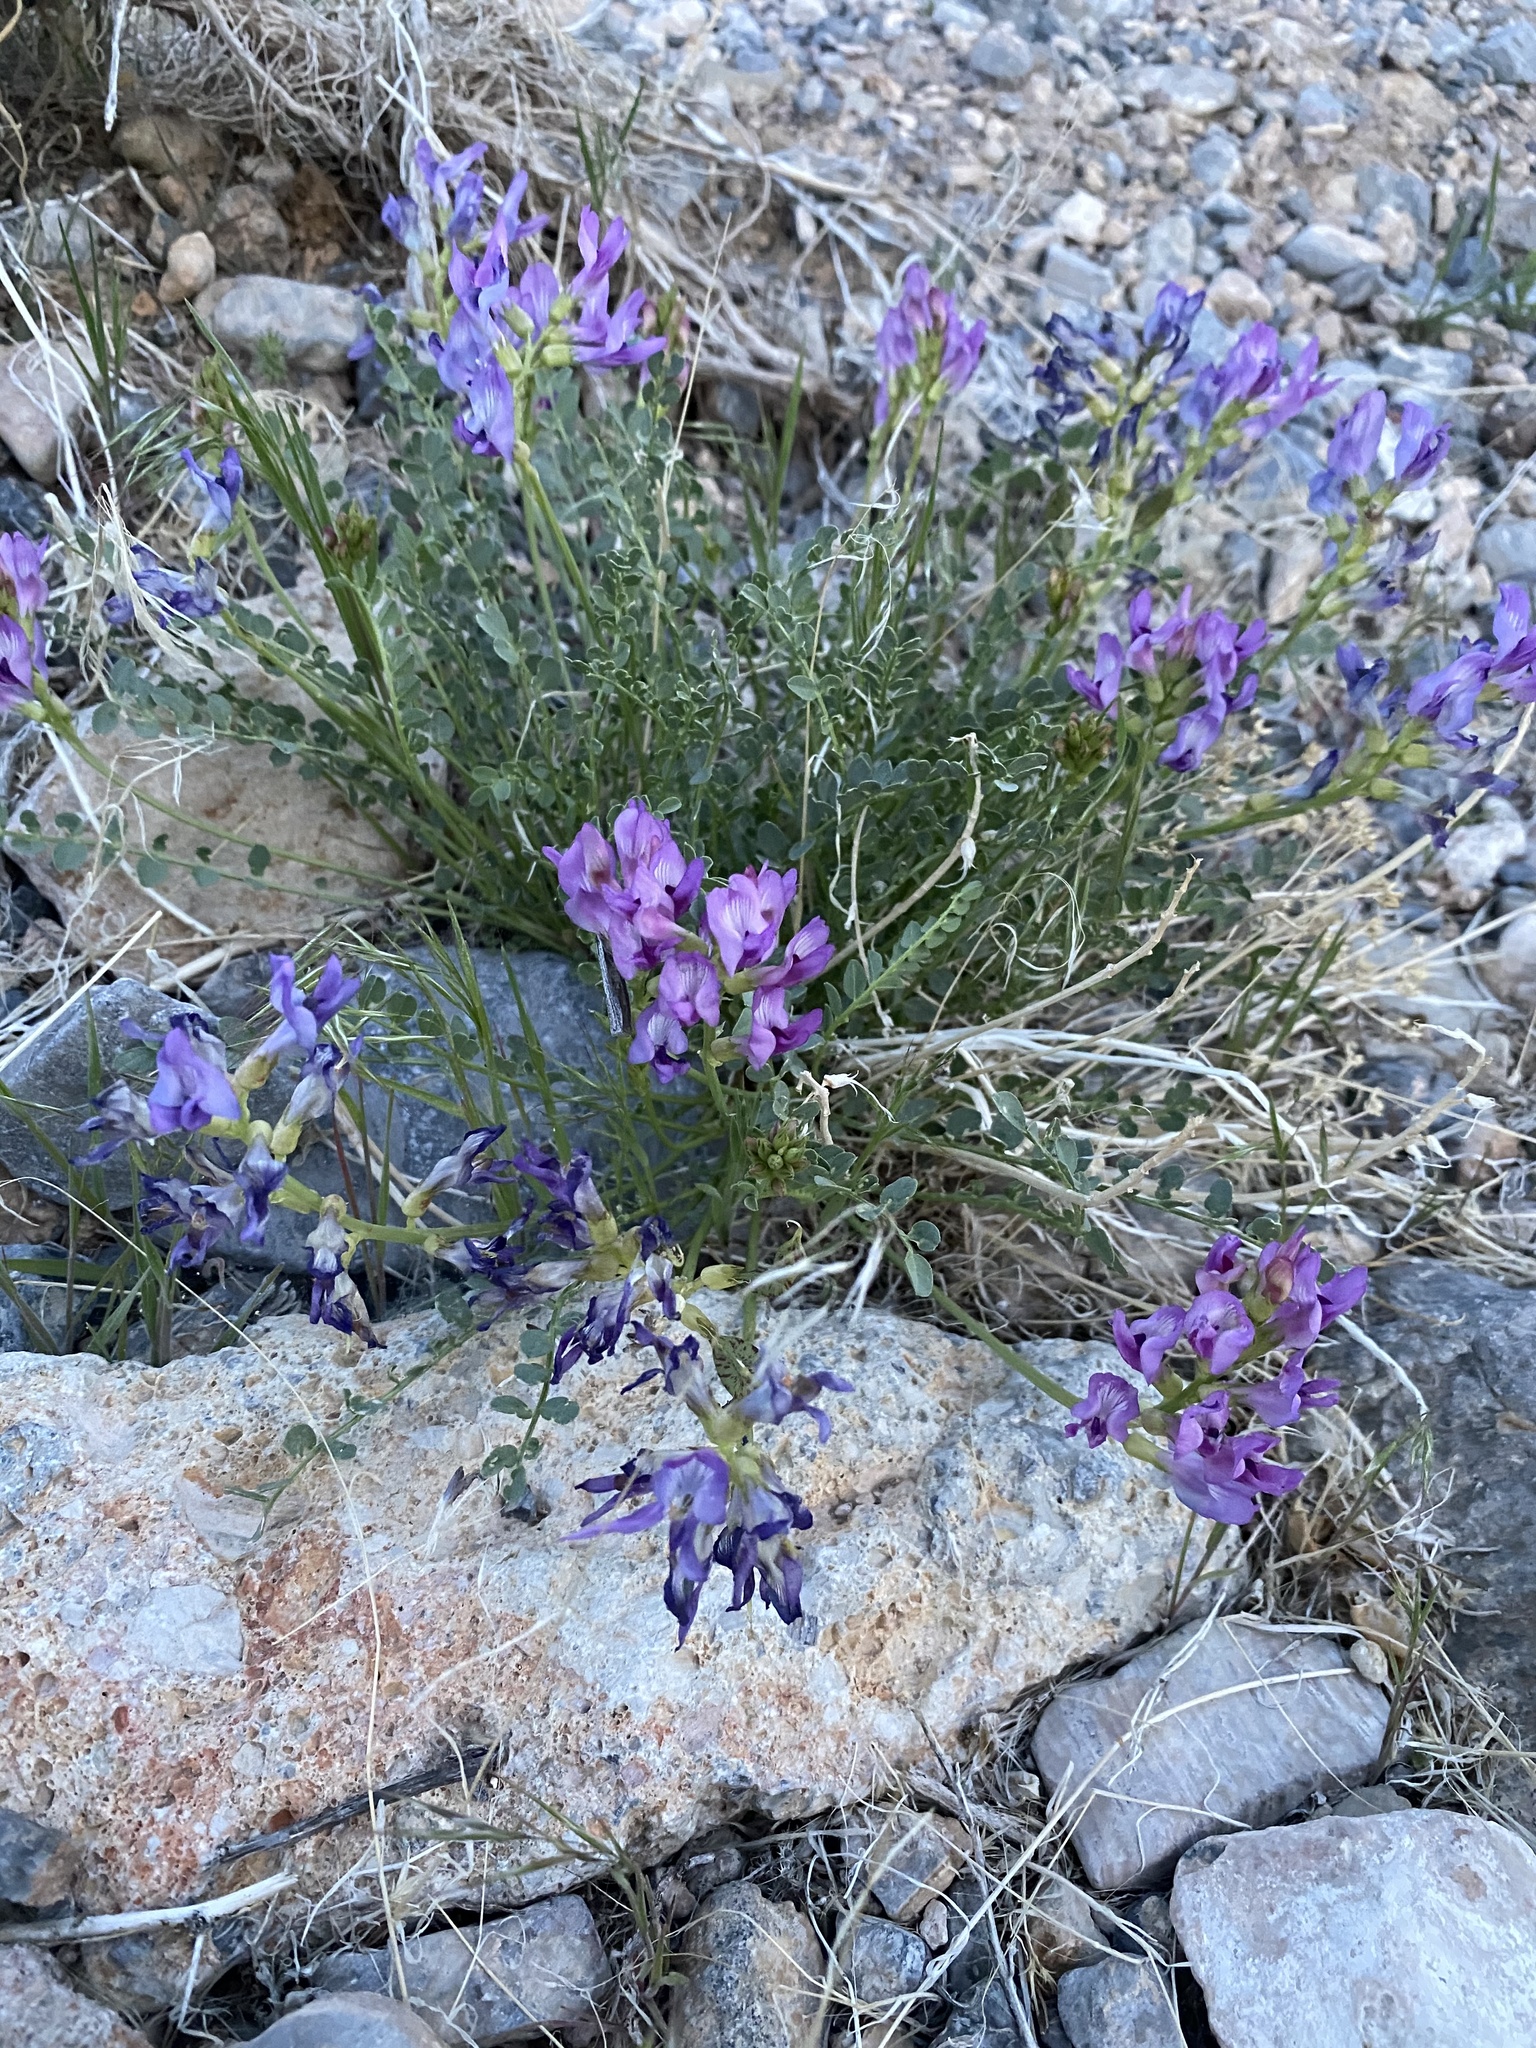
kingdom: Plantae
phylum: Tracheophyta
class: Magnoliopsida
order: Fabales
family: Fabaceae
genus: Astragalus
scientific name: Astragalus beckwithii
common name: Beckwith's milk-vetch
